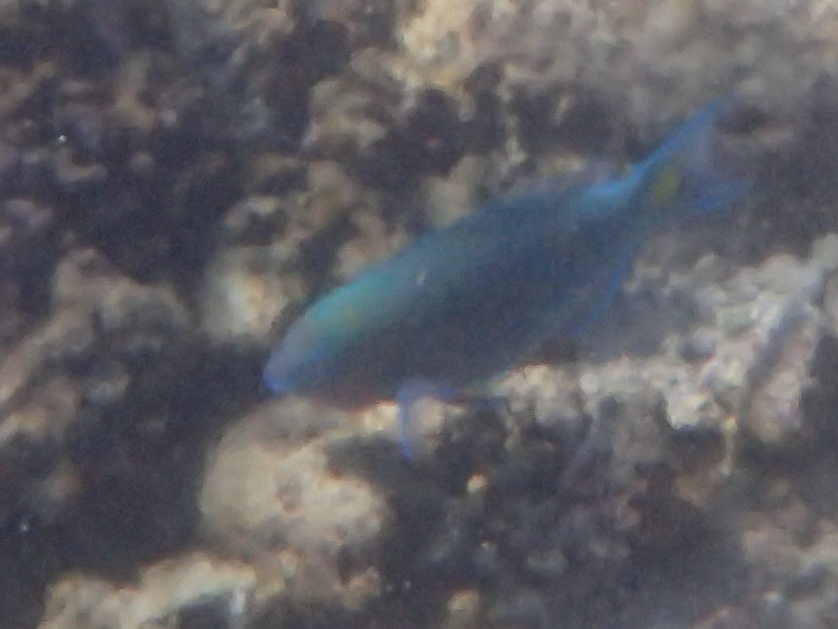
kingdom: Animalia
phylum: Chordata
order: Perciformes
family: Scaridae
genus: Scarus
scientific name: Scarus psittacus
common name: Palenose parrotfish
